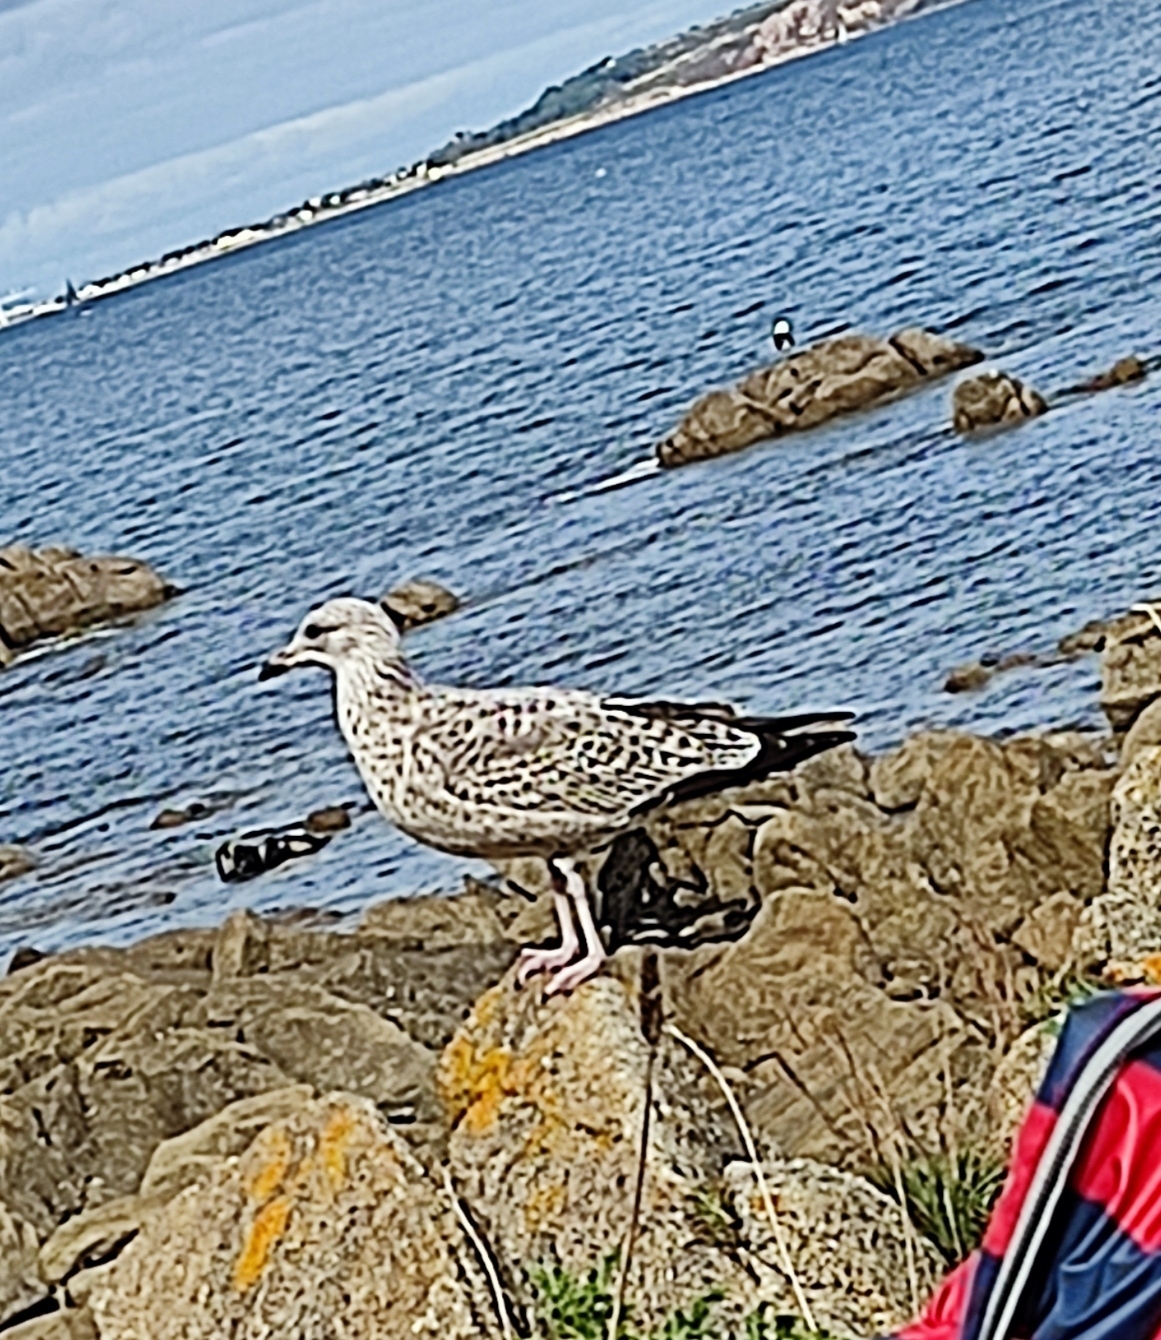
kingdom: Animalia
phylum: Chordata
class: Aves
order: Charadriiformes
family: Laridae
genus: Larus
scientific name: Larus argentatus
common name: Herring gull
